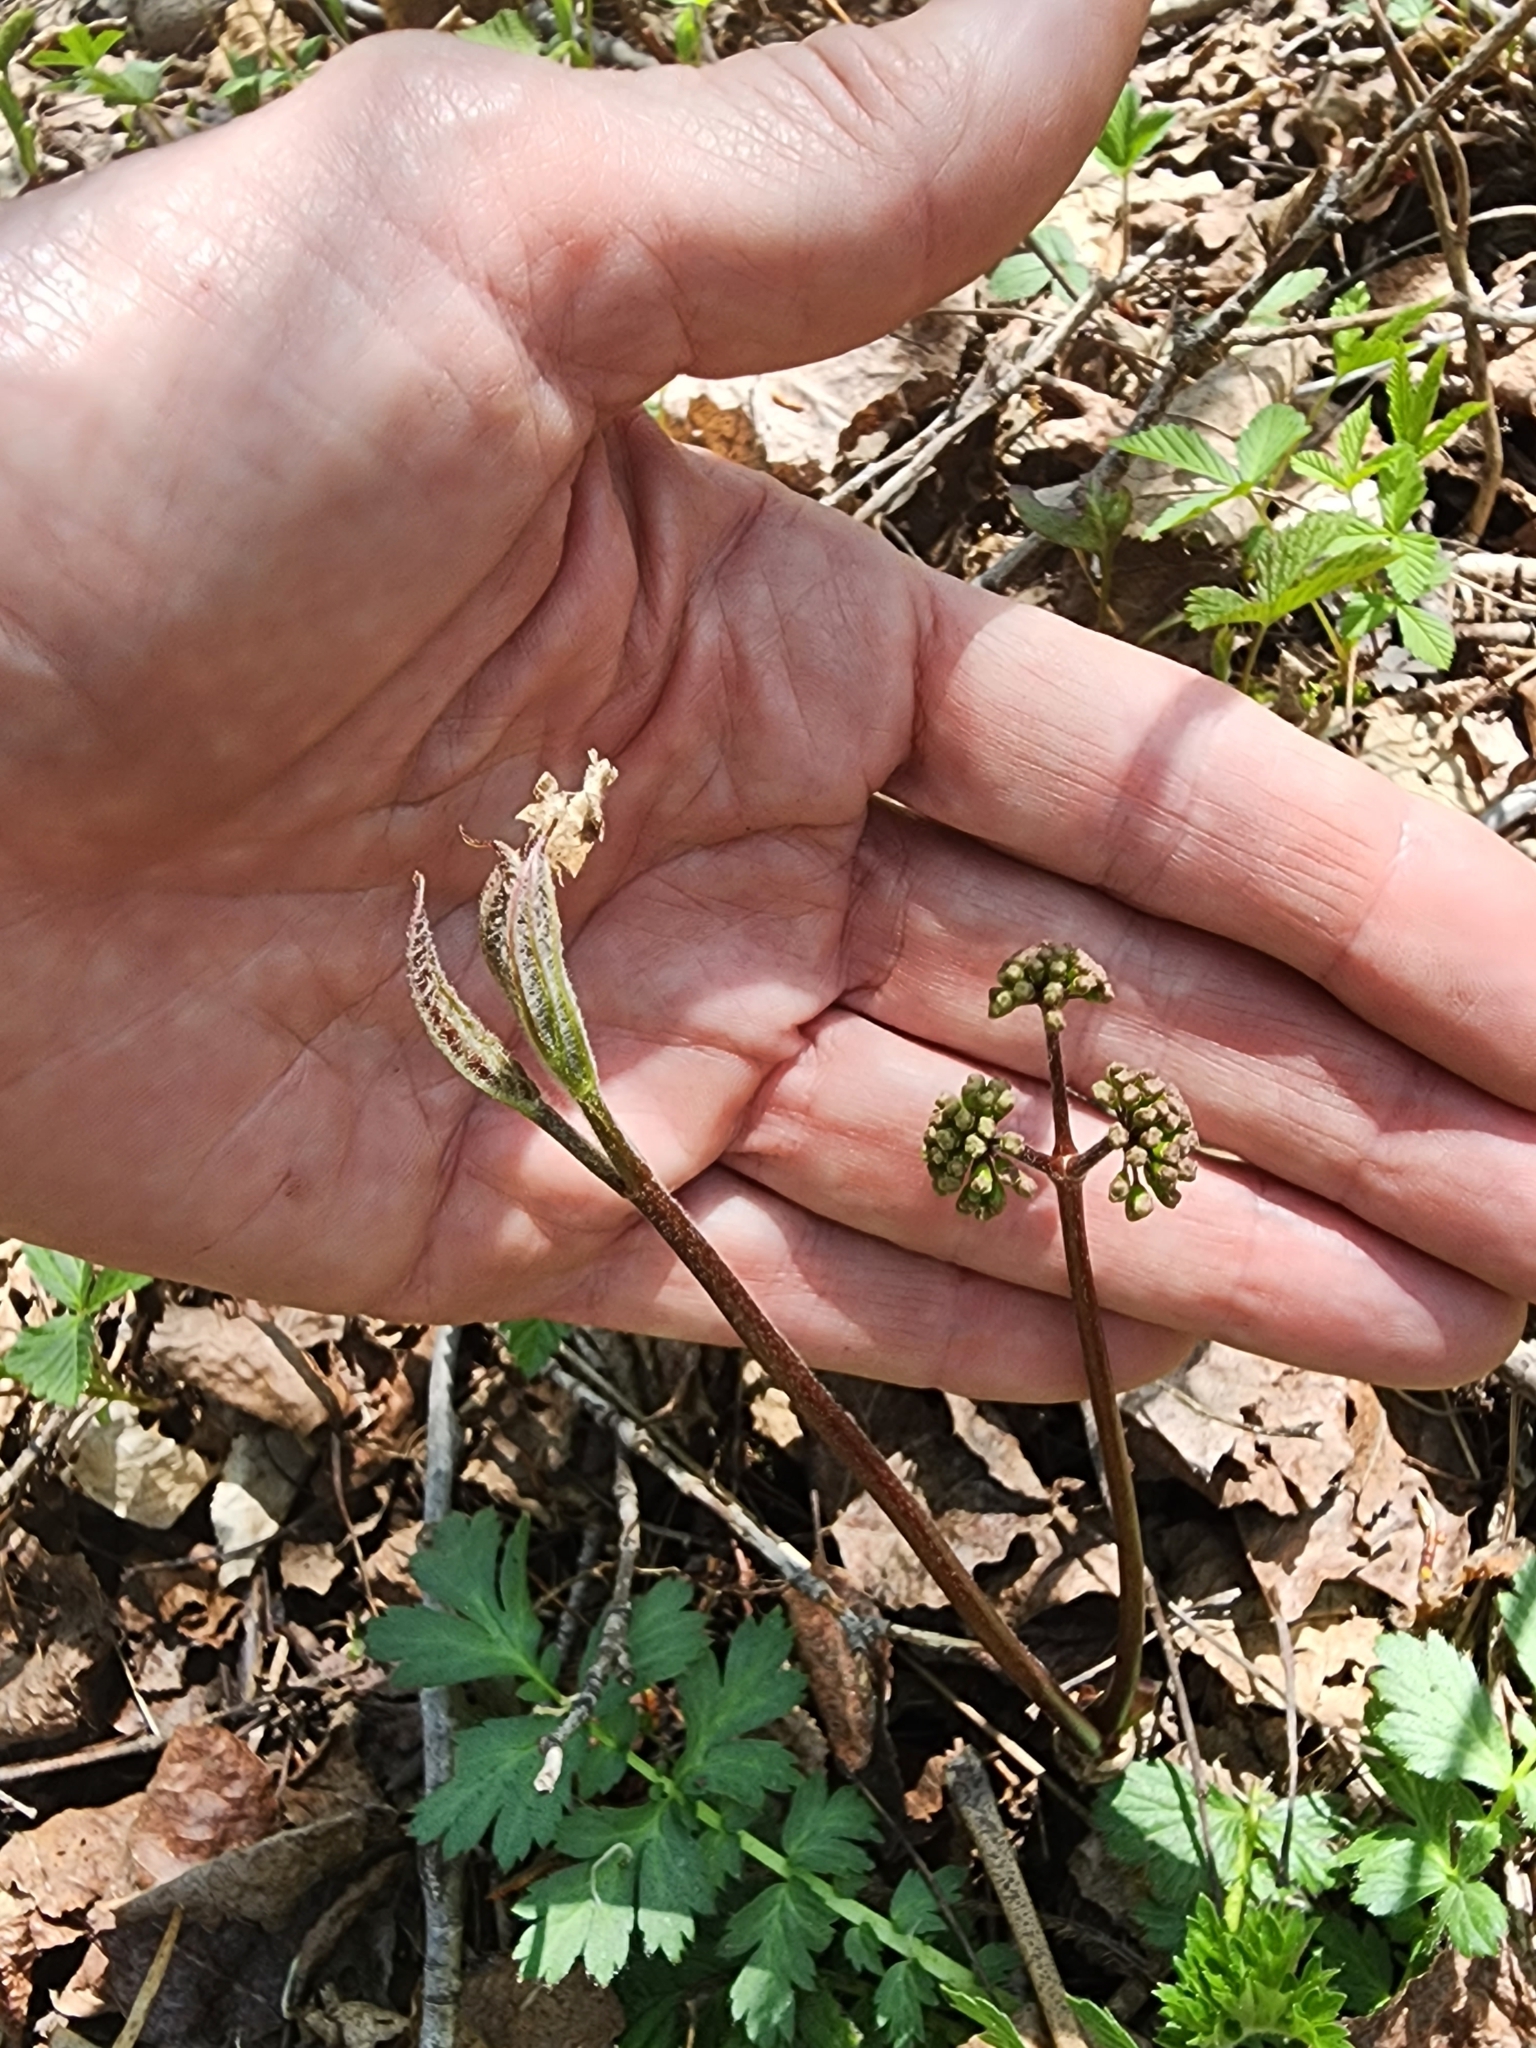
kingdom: Plantae
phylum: Tracheophyta
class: Magnoliopsida
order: Apiales
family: Araliaceae
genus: Aralia
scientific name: Aralia nudicaulis
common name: Wild sarsaparilla
